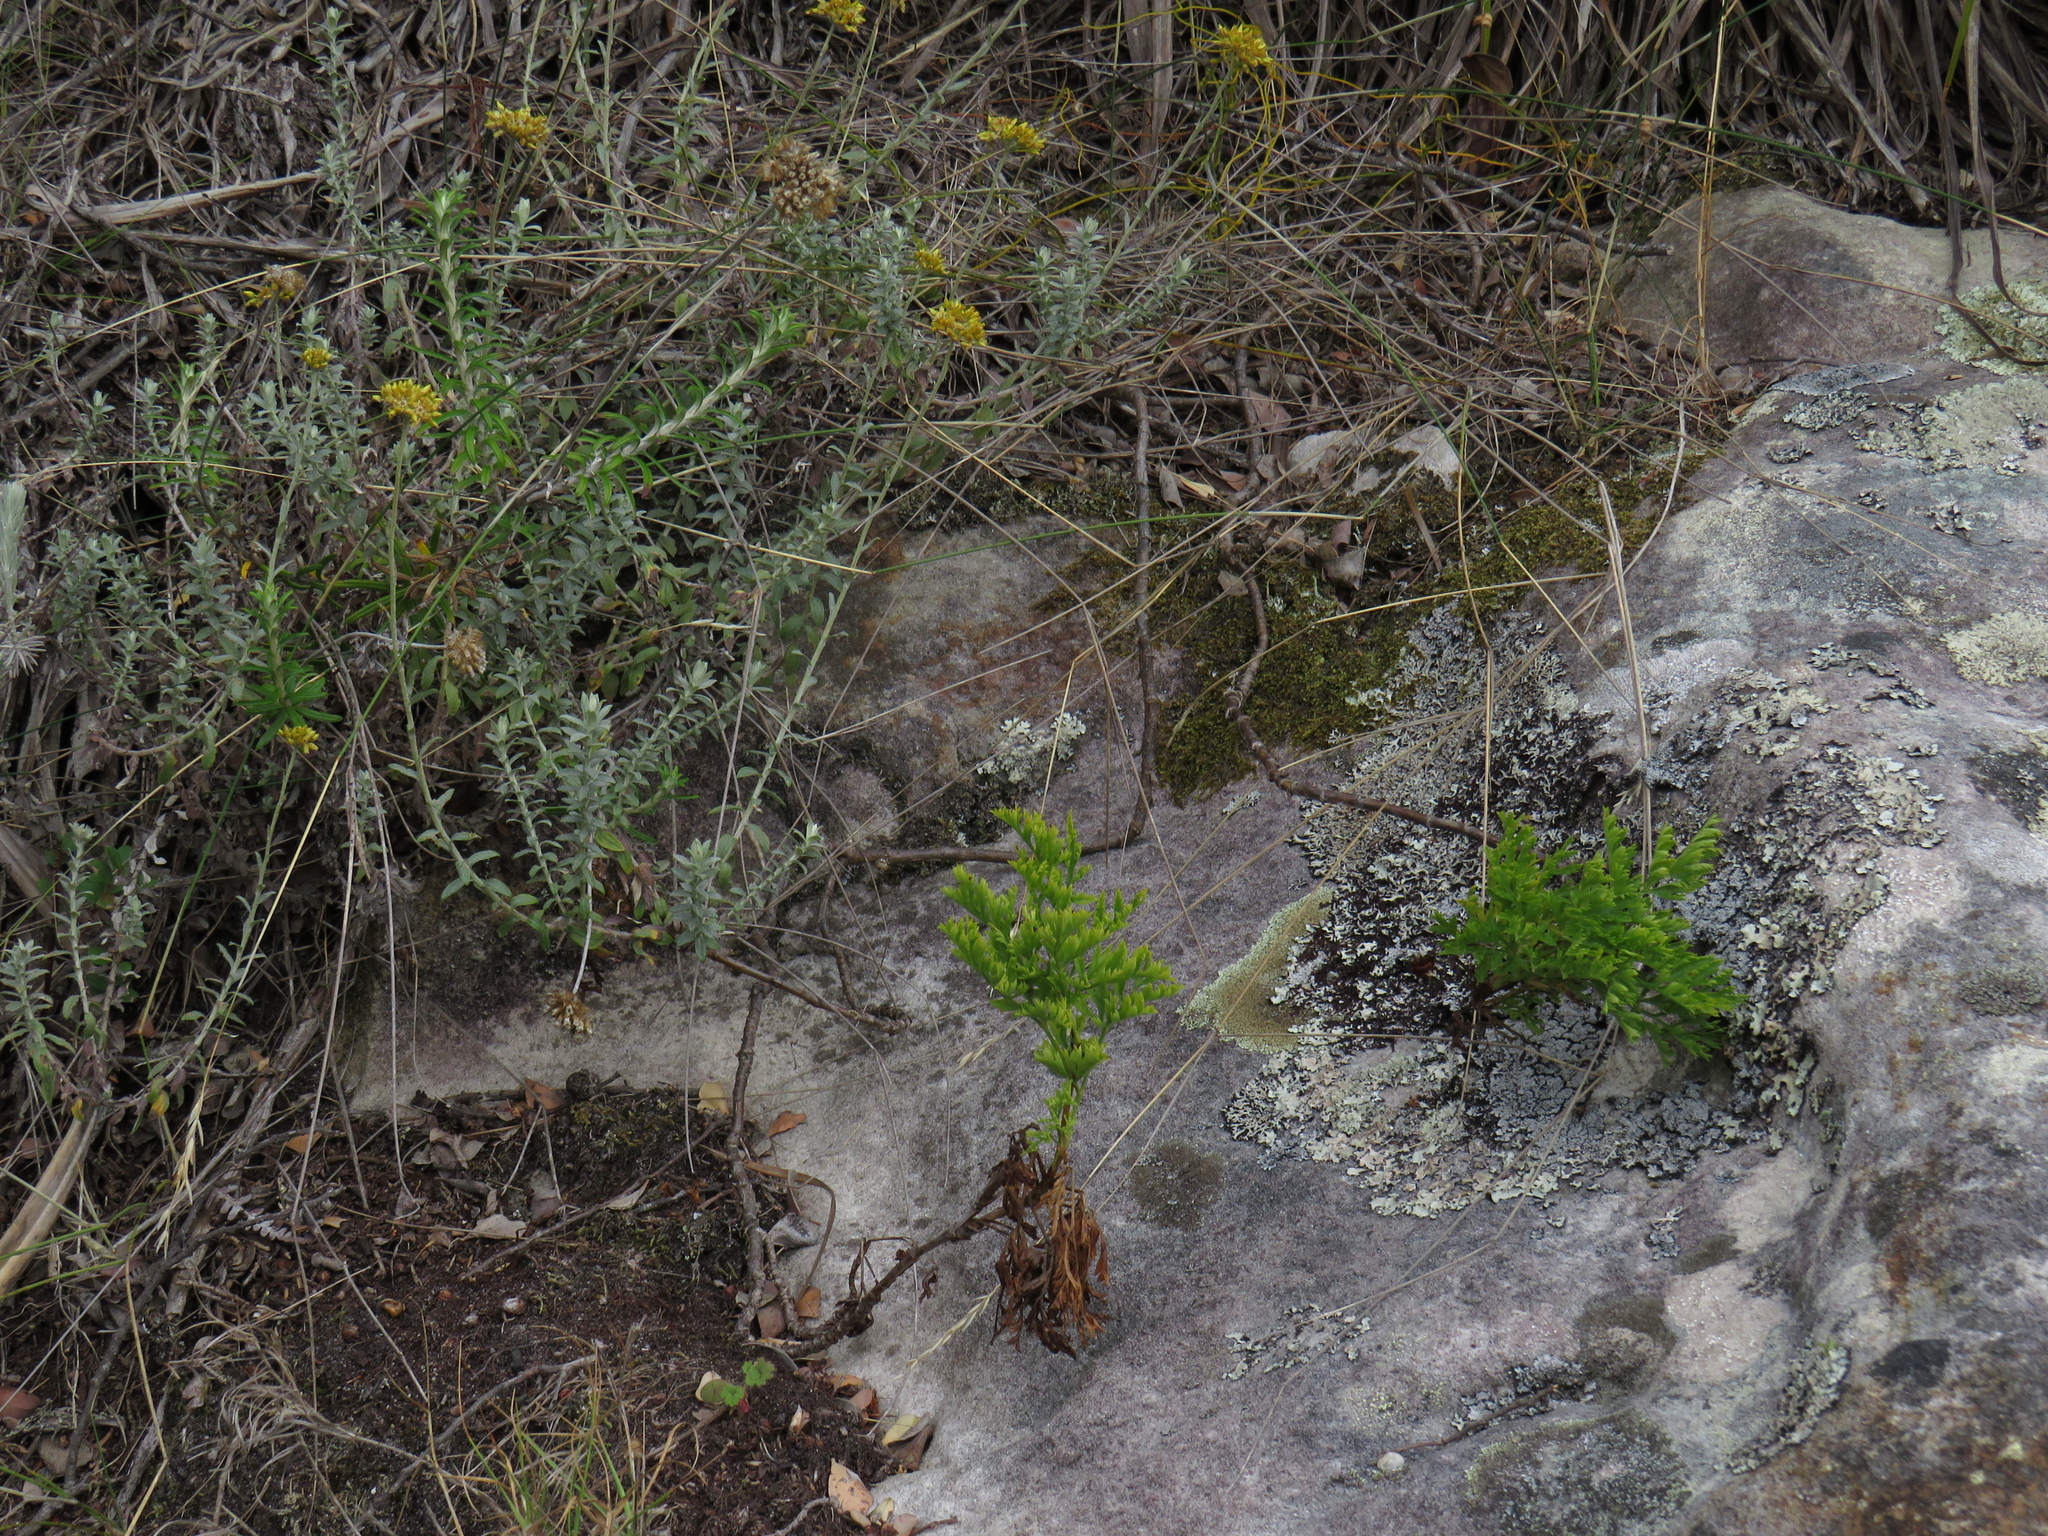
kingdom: Plantae
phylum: Tracheophyta
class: Magnoliopsida
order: Apiales
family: Apiaceae
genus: Glia
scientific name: Glia prolifera
